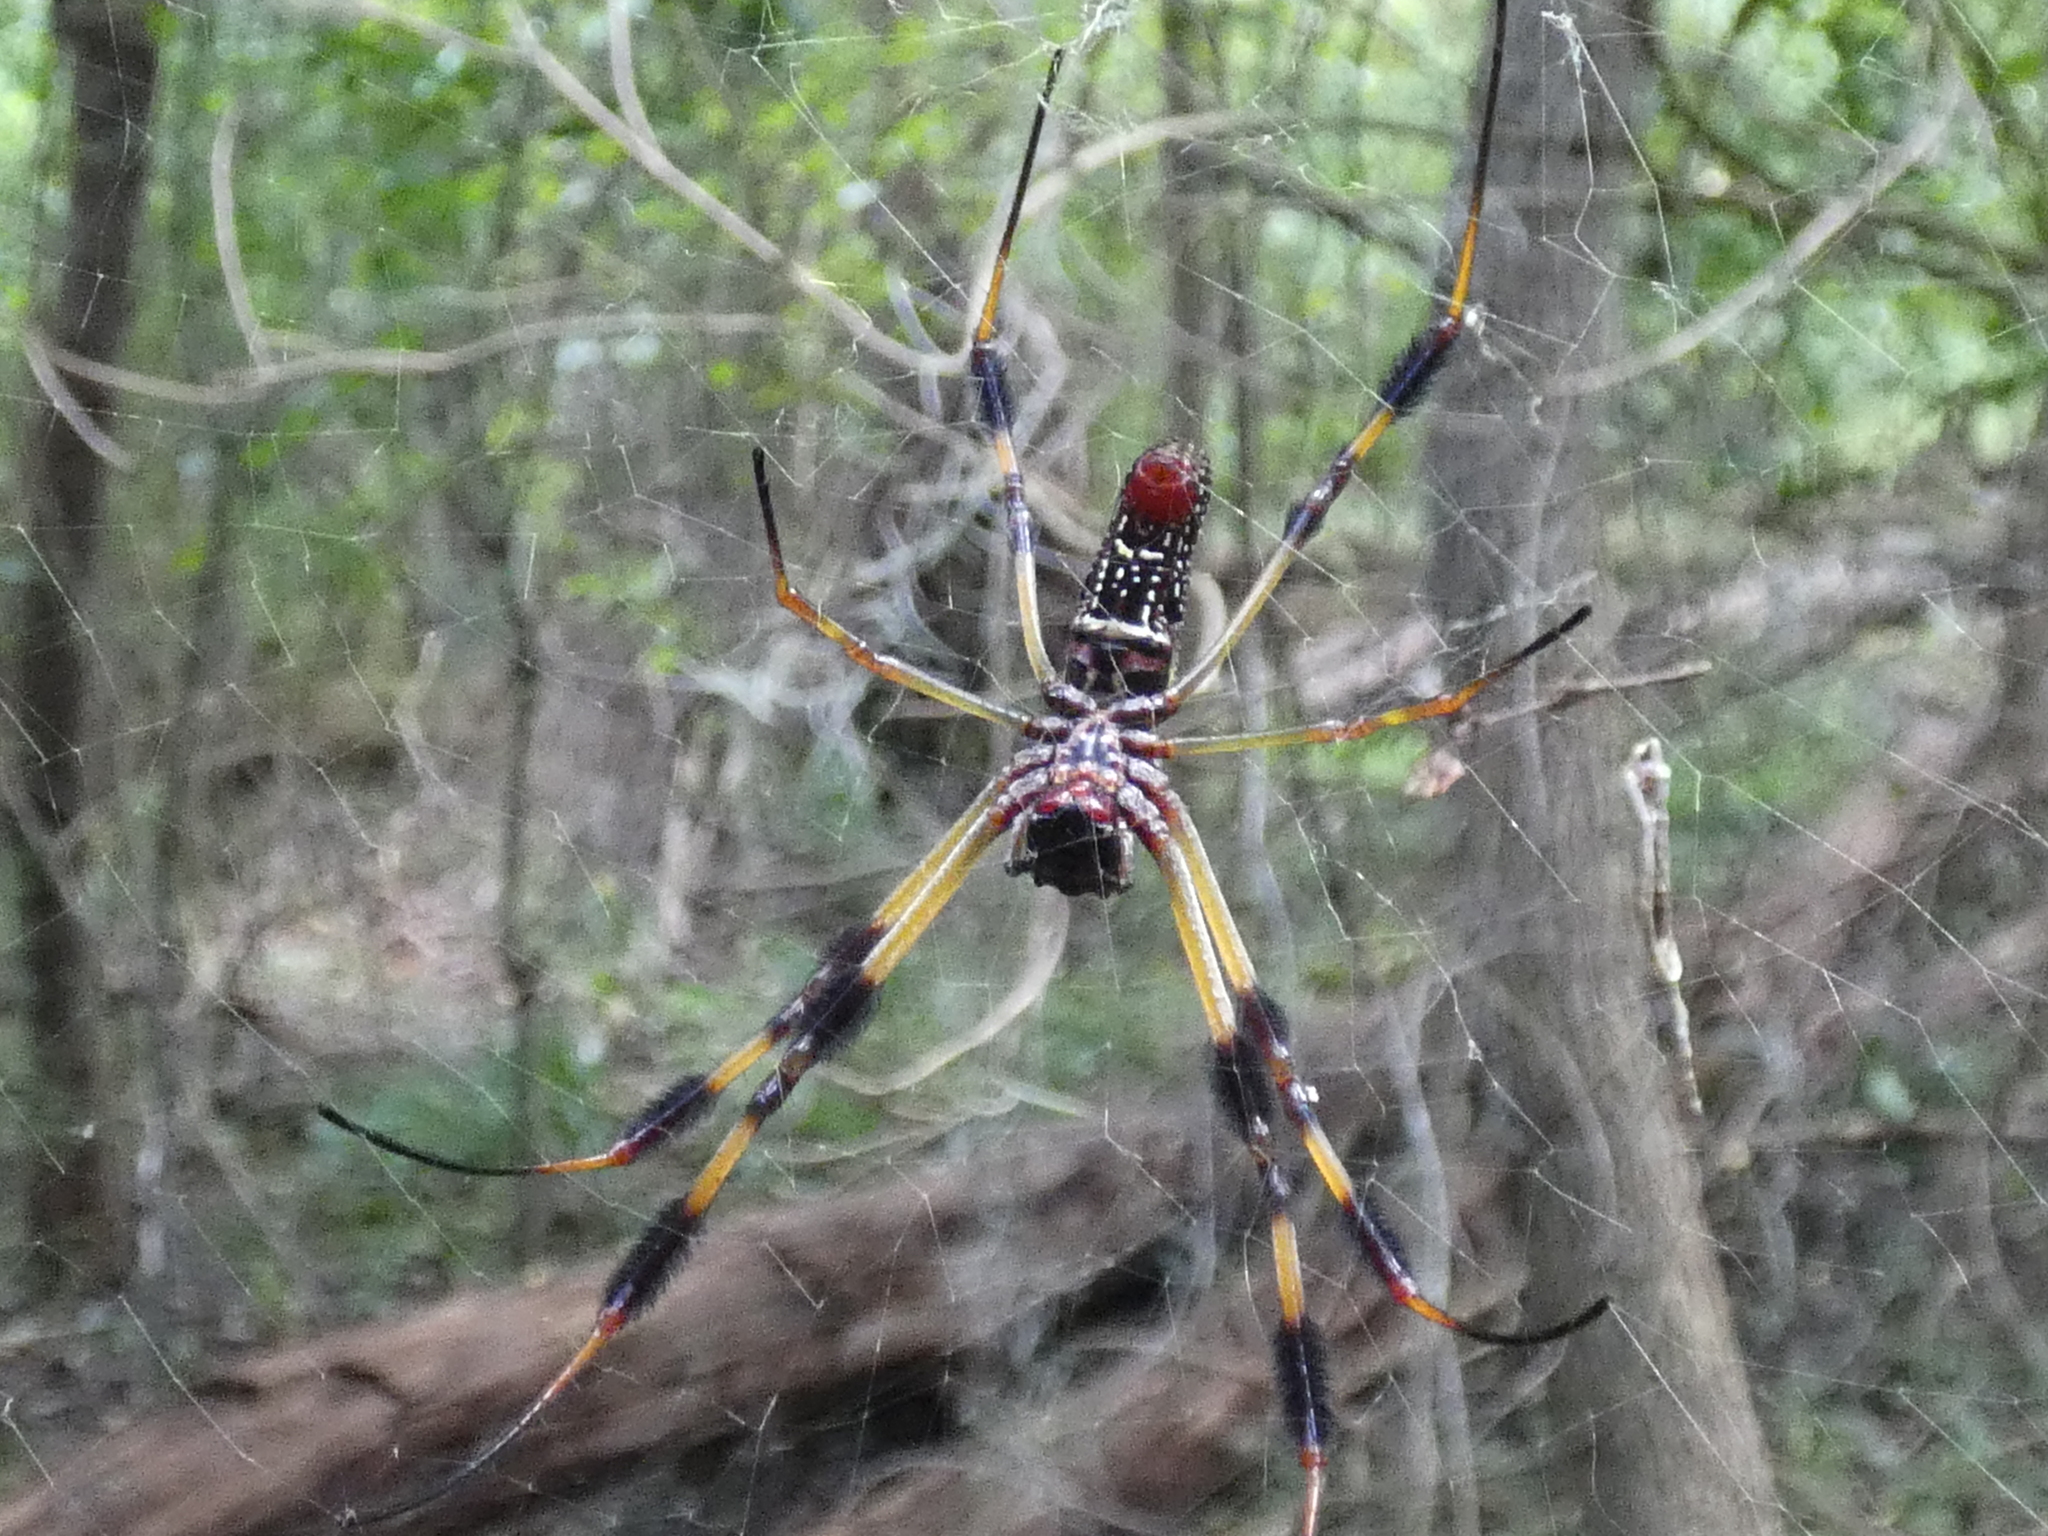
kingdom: Animalia
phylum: Arthropoda
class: Arachnida
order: Araneae
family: Araneidae
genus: Trichonephila
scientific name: Trichonephila clavipes
